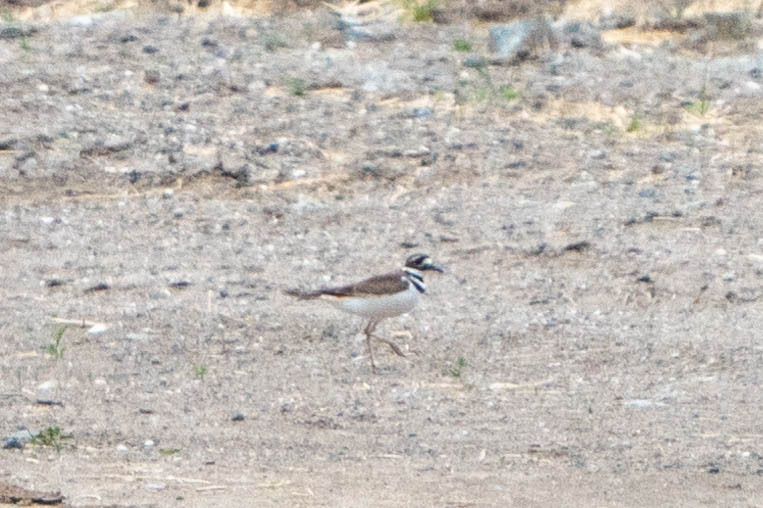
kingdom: Animalia
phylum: Chordata
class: Aves
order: Charadriiformes
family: Charadriidae
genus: Charadrius
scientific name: Charadrius vociferus
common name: Killdeer
